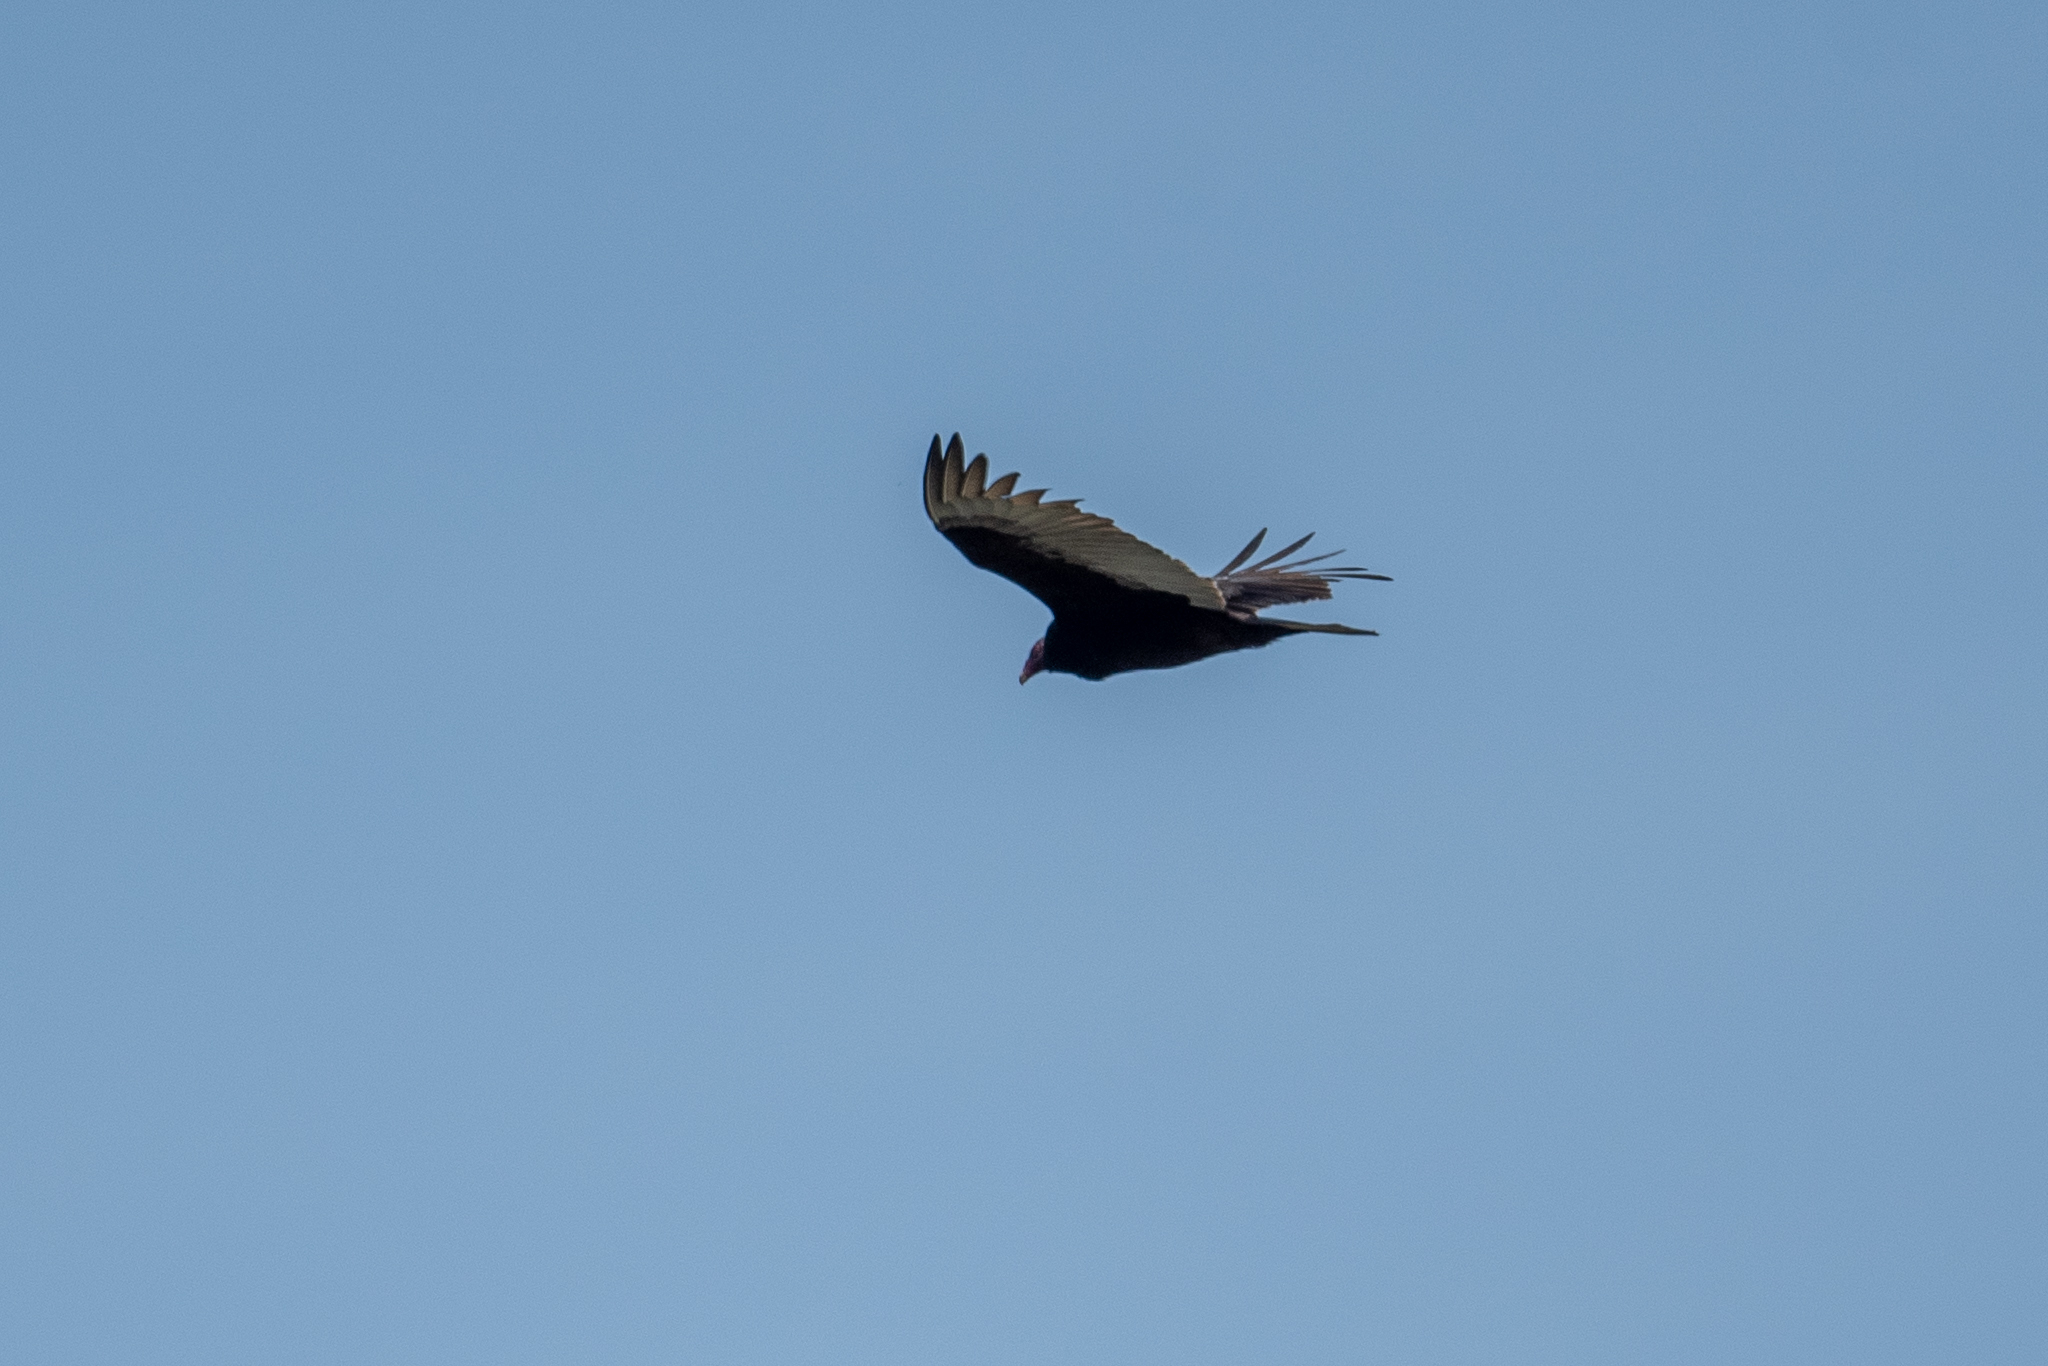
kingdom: Animalia
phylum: Chordata
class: Aves
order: Accipitriformes
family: Cathartidae
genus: Cathartes
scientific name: Cathartes aura
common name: Turkey vulture
